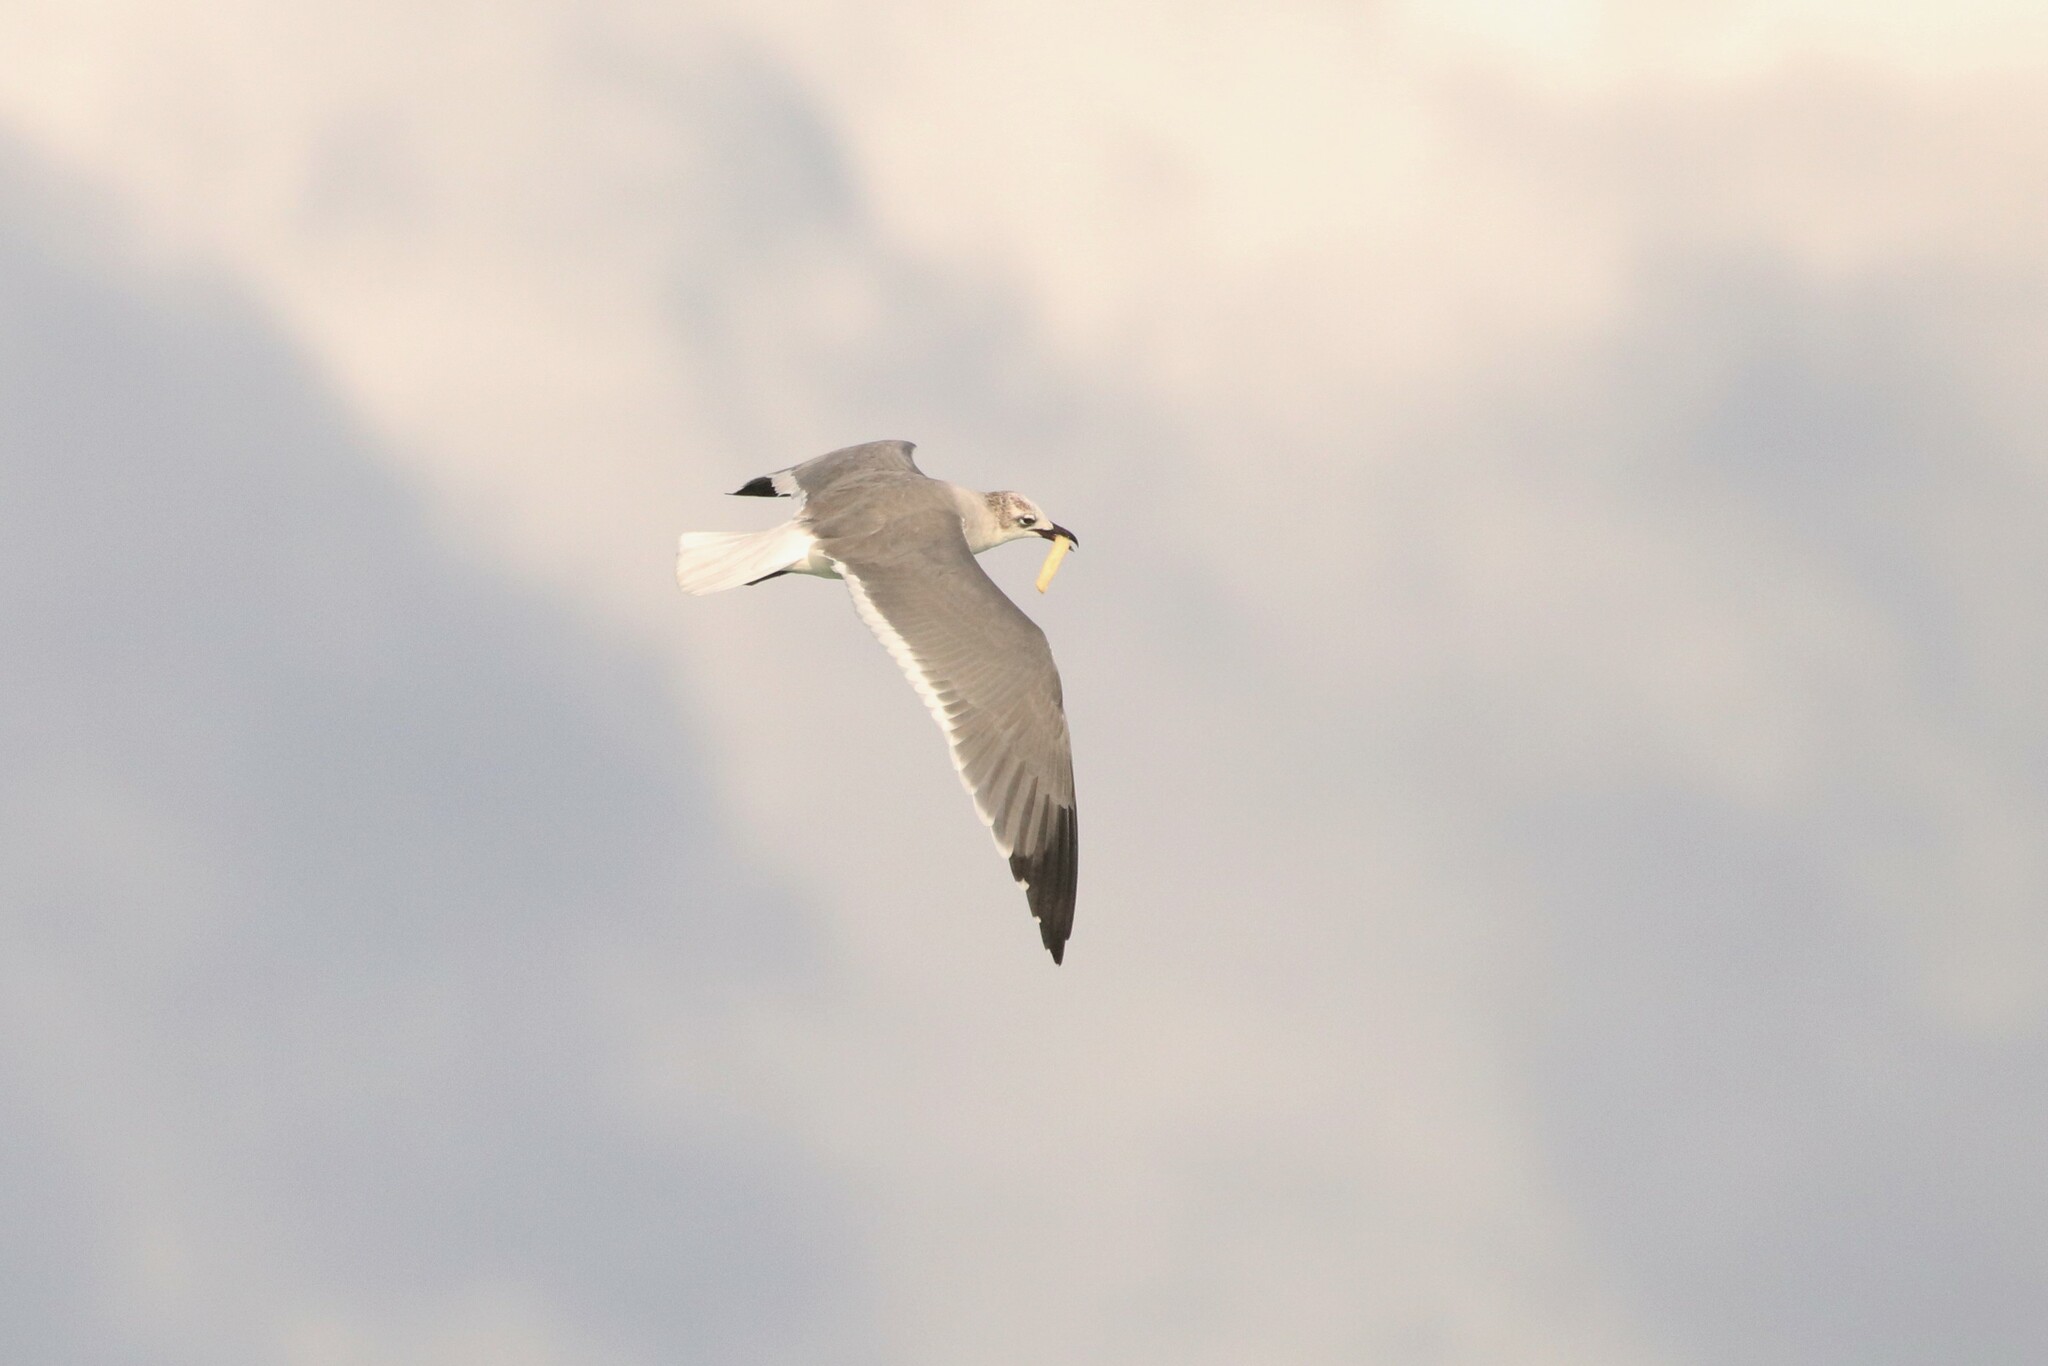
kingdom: Animalia
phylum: Chordata
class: Aves
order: Charadriiformes
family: Laridae
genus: Leucophaeus
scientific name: Leucophaeus atricilla
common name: Laughing gull
